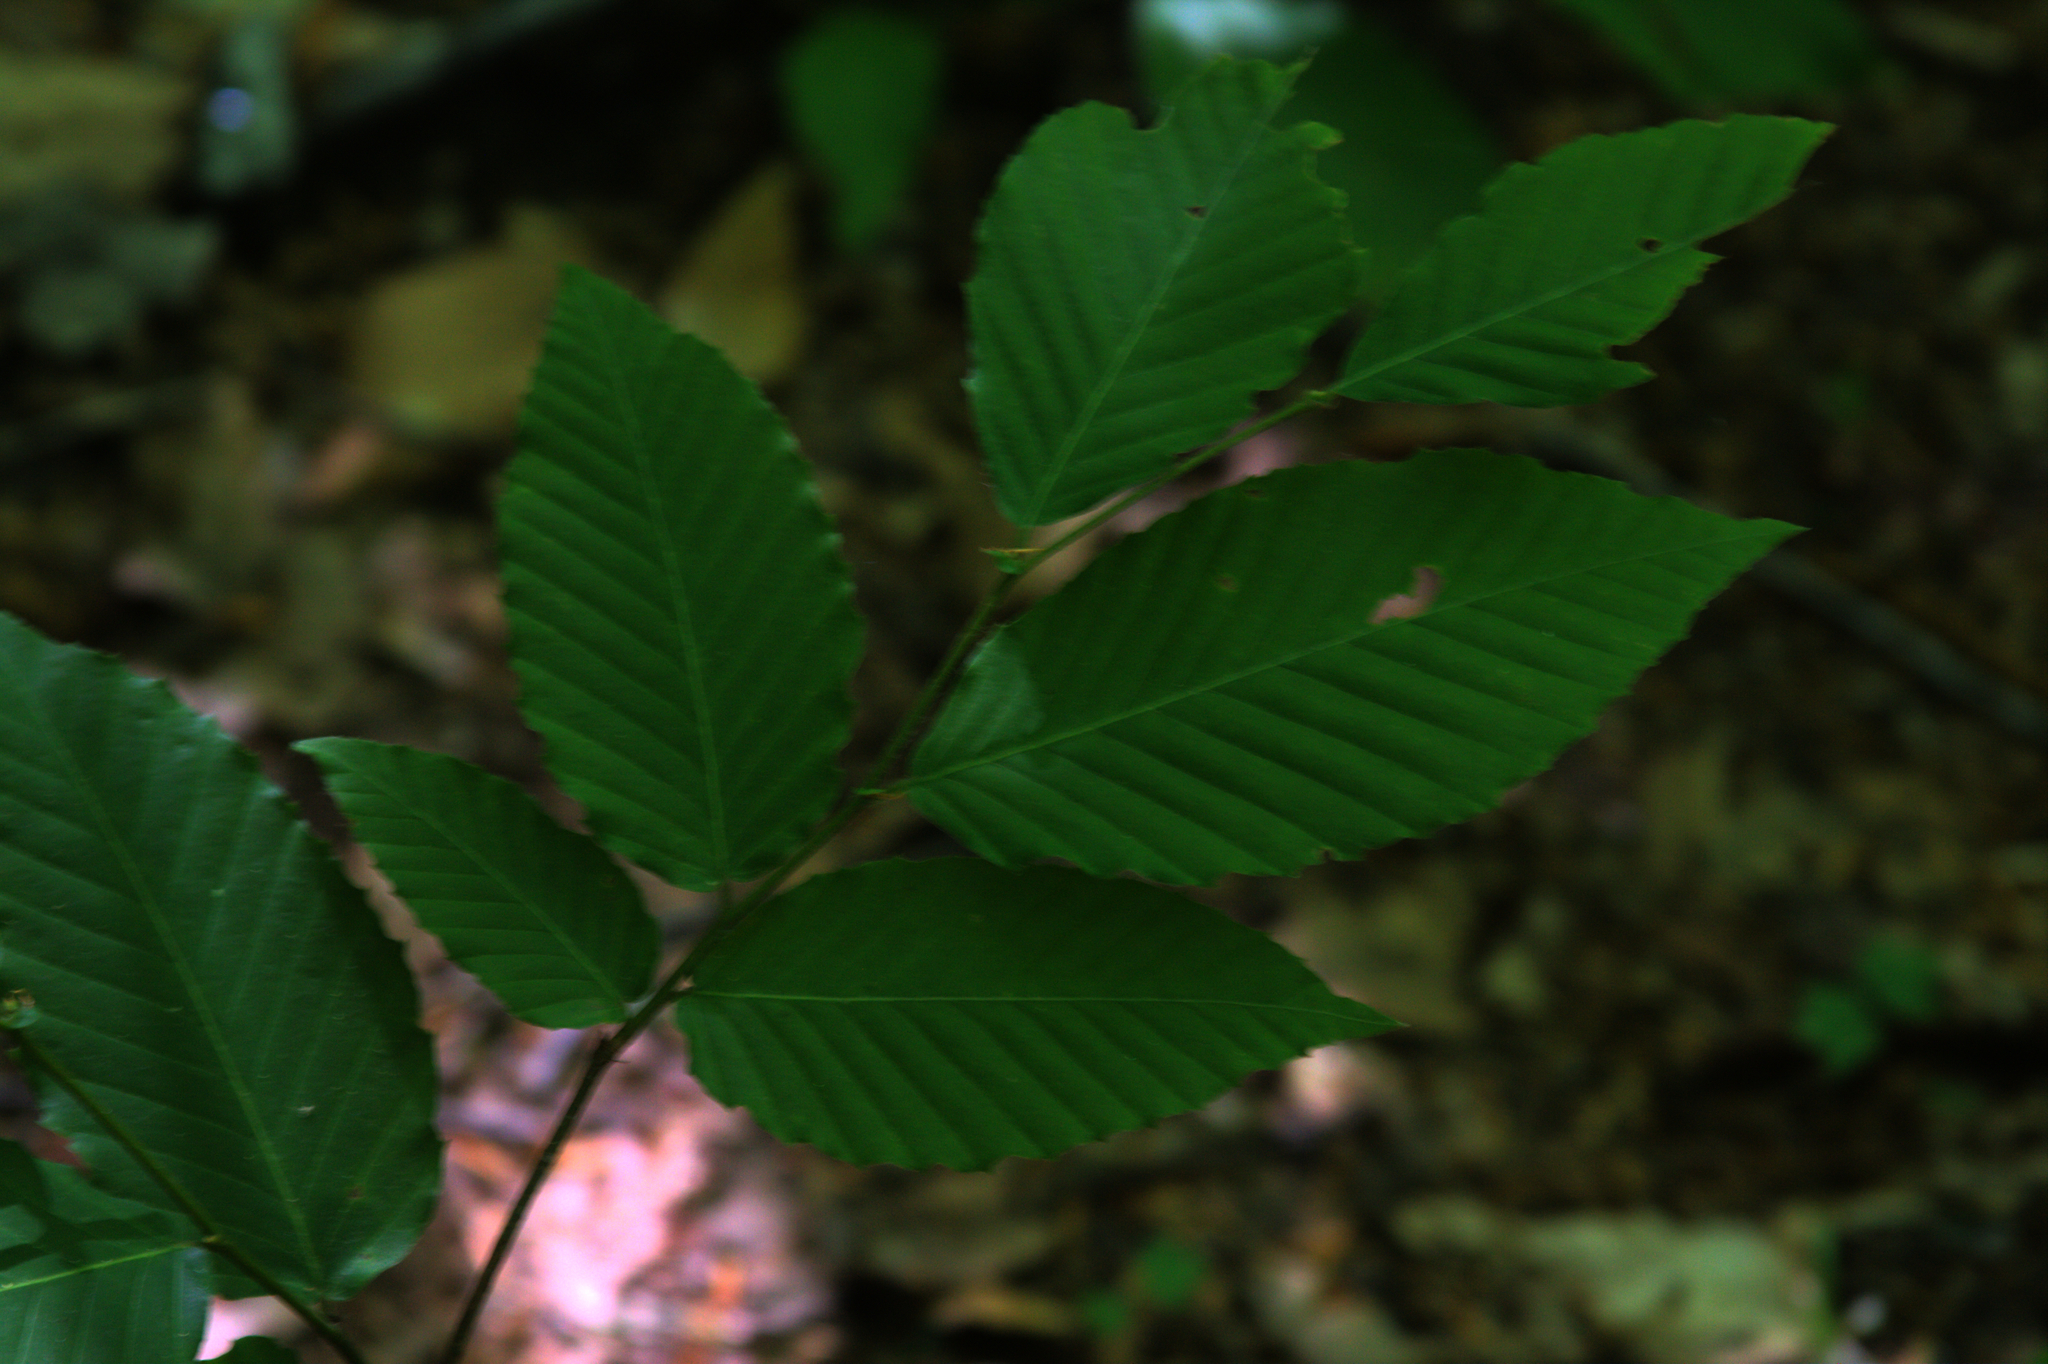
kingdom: Plantae
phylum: Tracheophyta
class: Magnoliopsida
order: Fagales
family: Fagaceae
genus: Fagus
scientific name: Fagus grandifolia
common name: American beech
